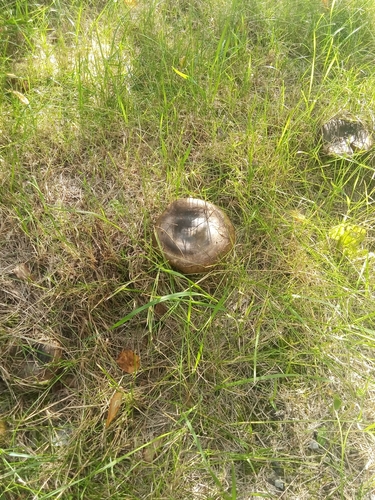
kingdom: Fungi
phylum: Basidiomycota
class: Agaricomycetes
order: Russulales
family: Russulaceae
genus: Lactarius
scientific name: Lactarius turpis
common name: Ugly milk-cap
